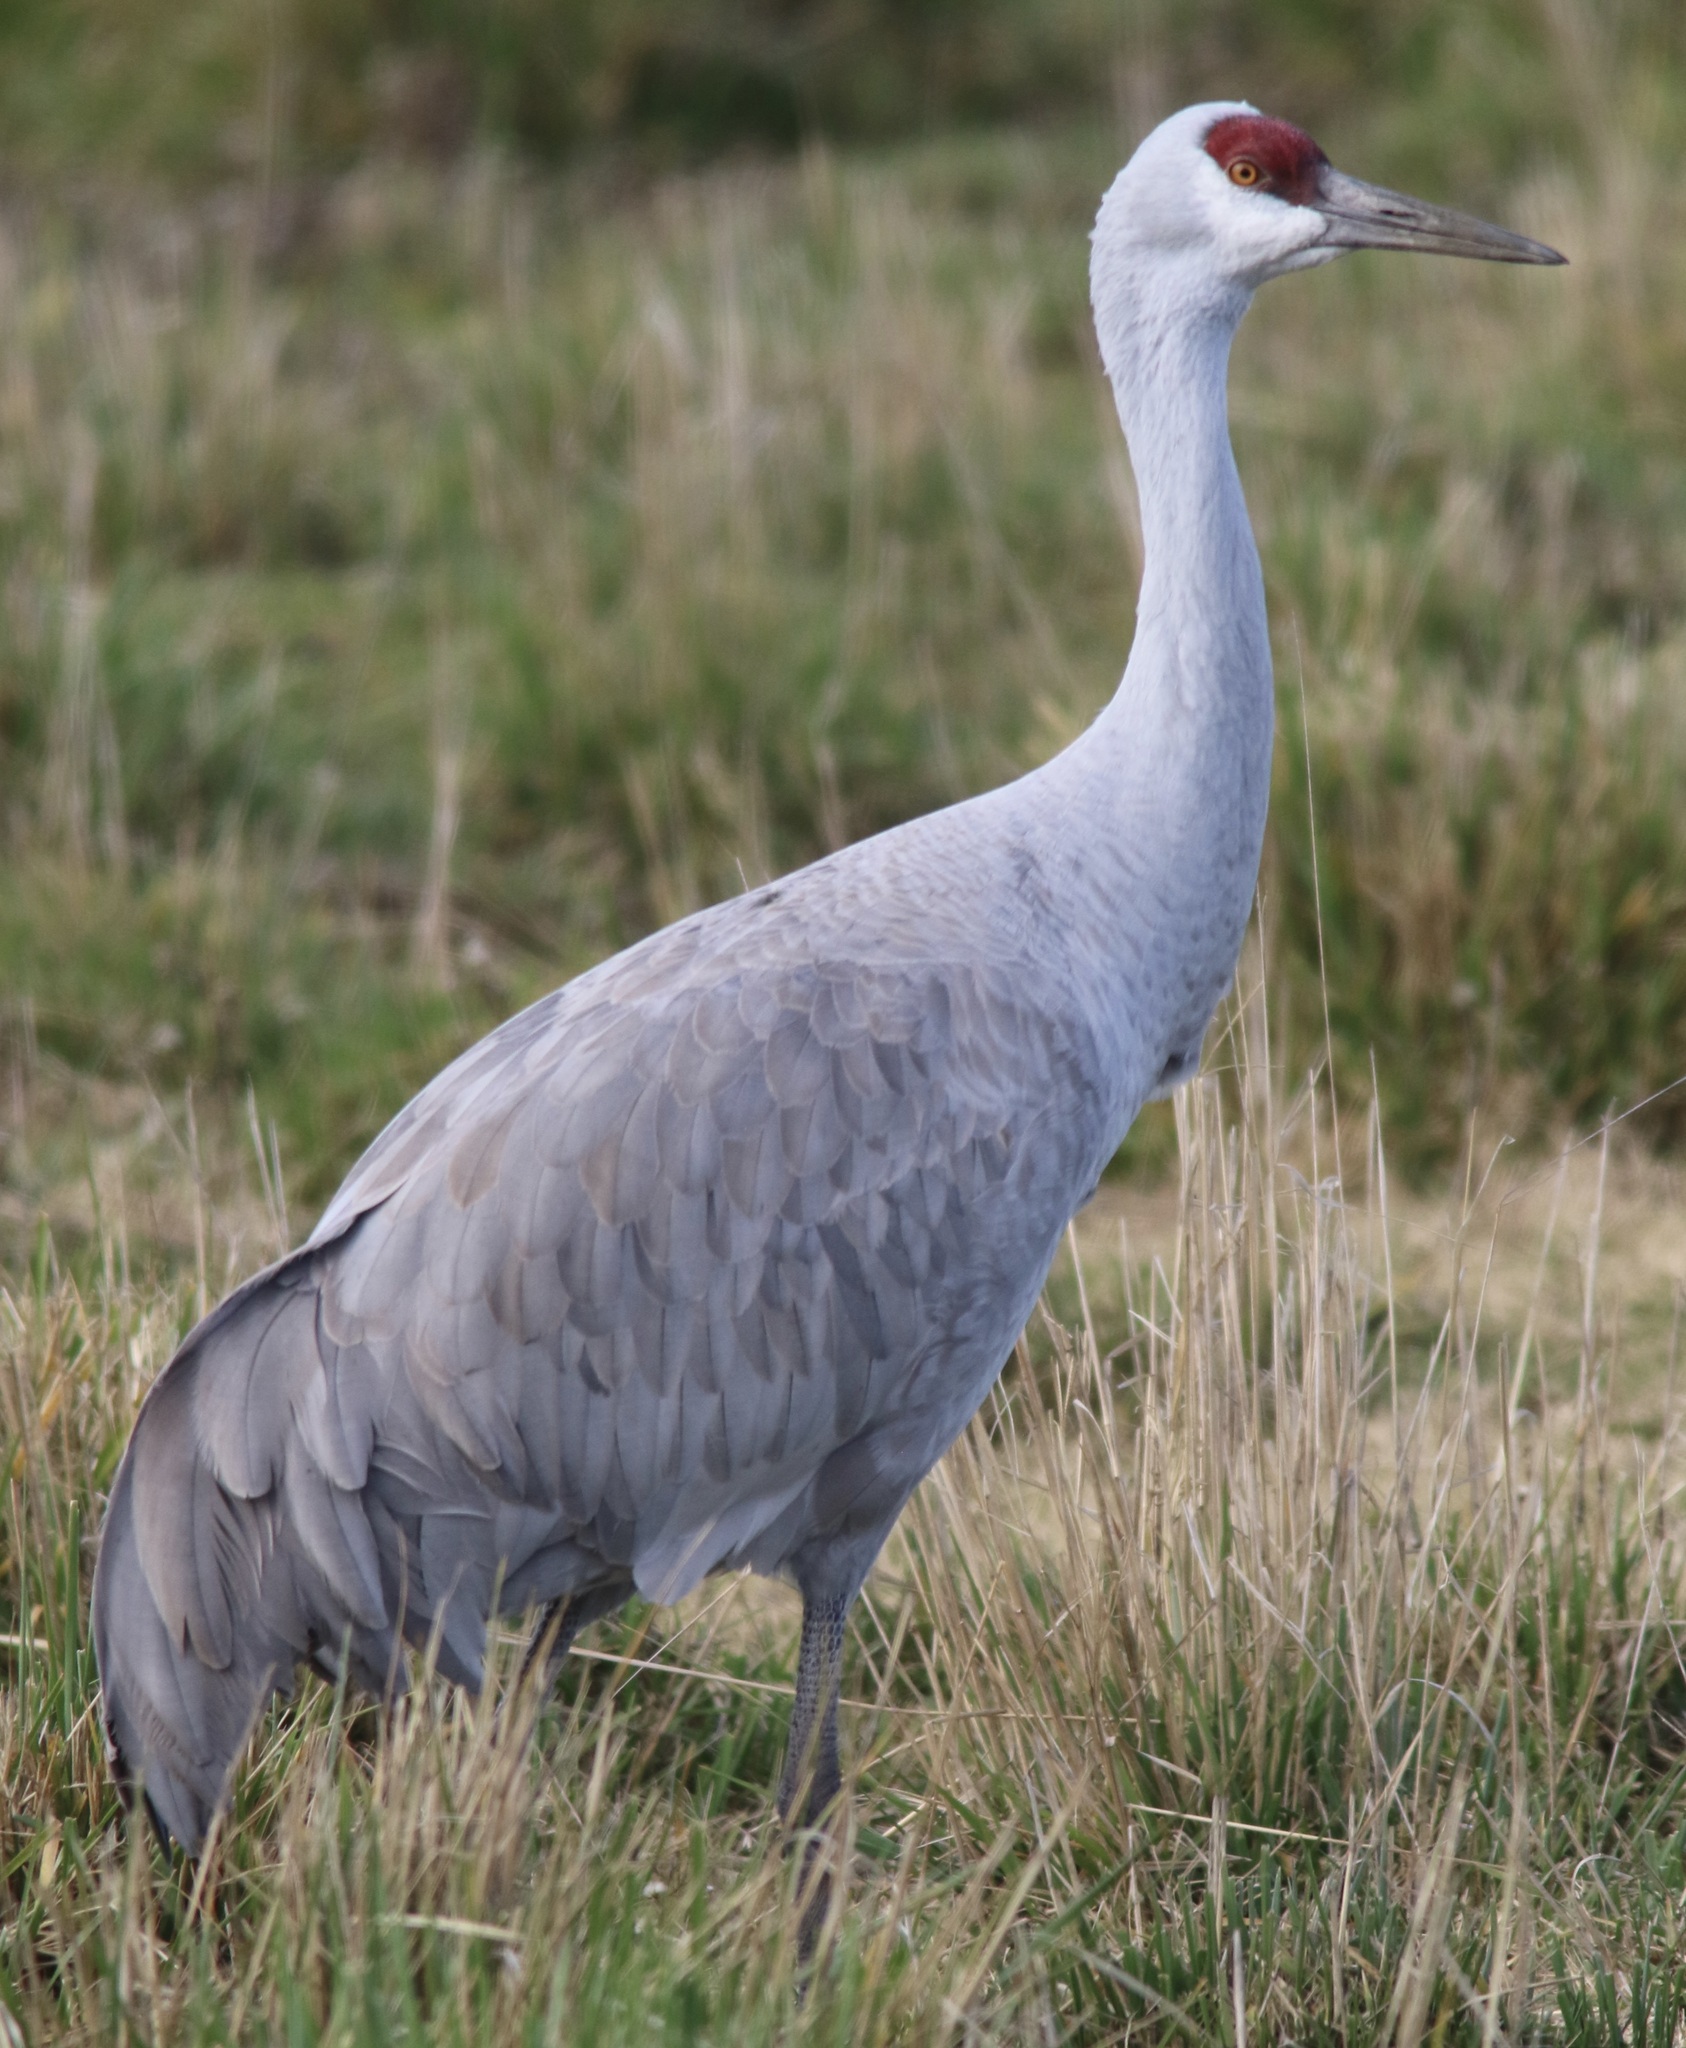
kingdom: Animalia
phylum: Chordata
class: Aves
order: Gruiformes
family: Gruidae
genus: Grus
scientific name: Grus canadensis
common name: Sandhill crane
